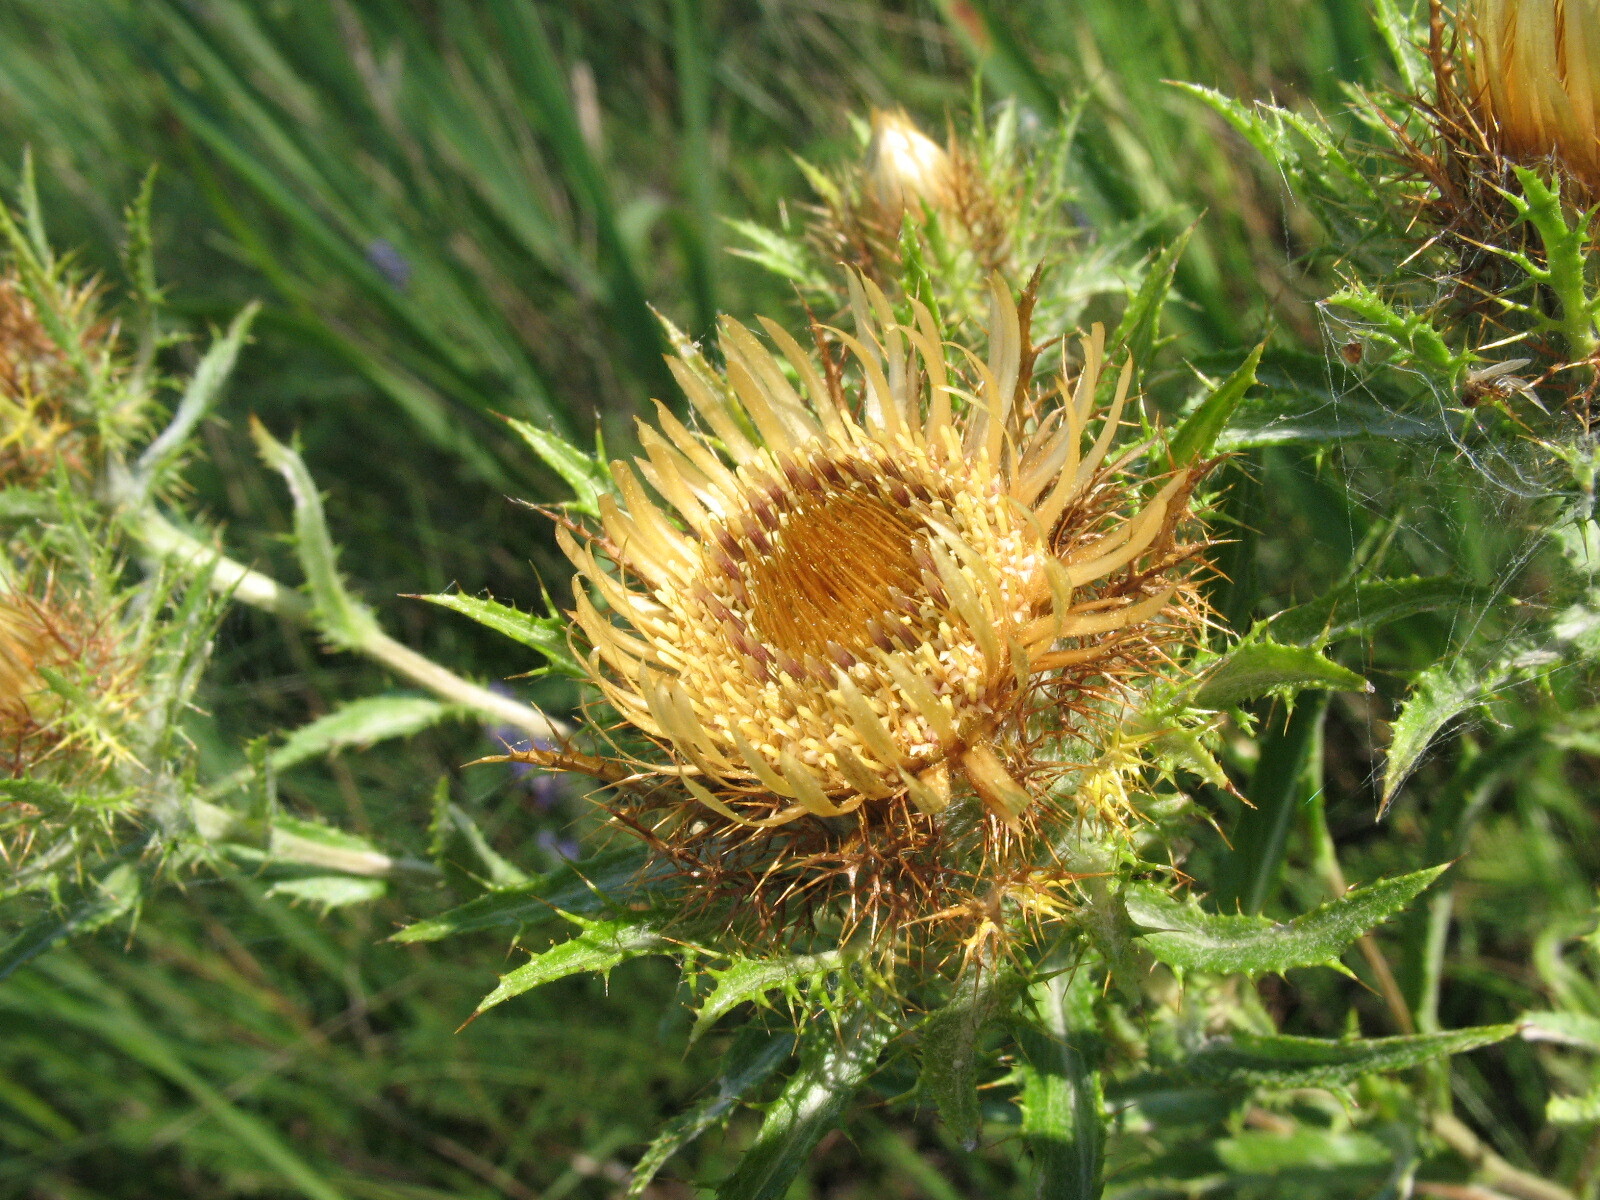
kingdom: Plantae
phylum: Tracheophyta
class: Magnoliopsida
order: Asterales
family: Asteraceae
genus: Carlina
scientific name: Carlina biebersteinii
